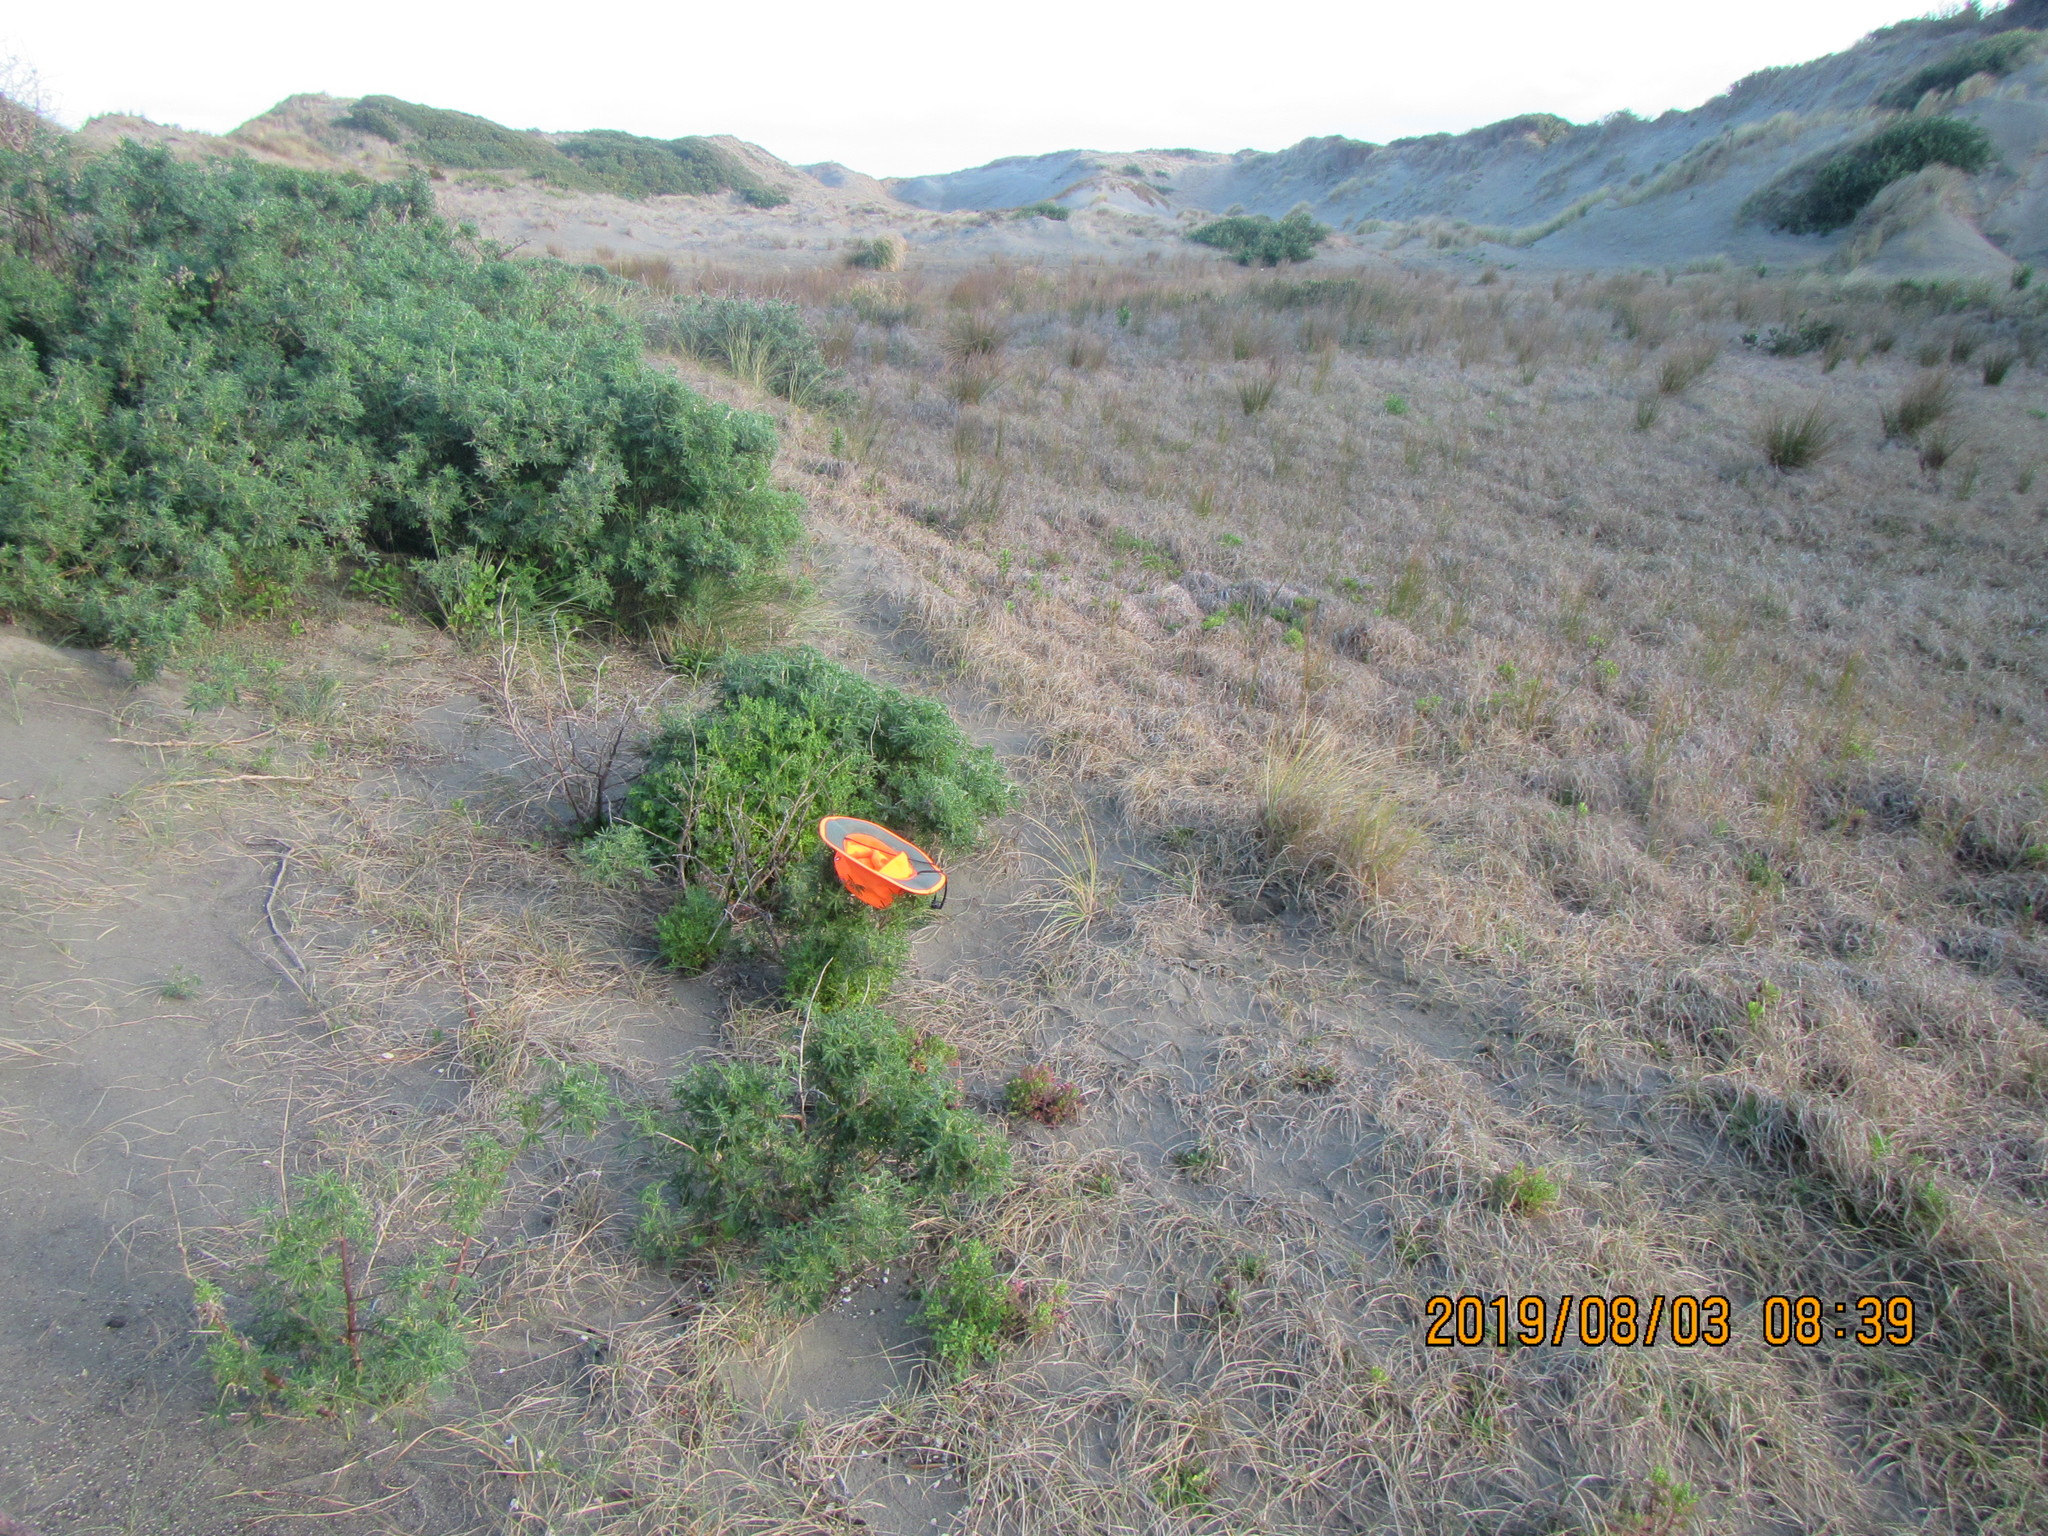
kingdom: Plantae
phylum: Tracheophyta
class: Magnoliopsida
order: Fabales
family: Fabaceae
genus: Lupinus
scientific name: Lupinus arboreus
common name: Yellow bush lupine
